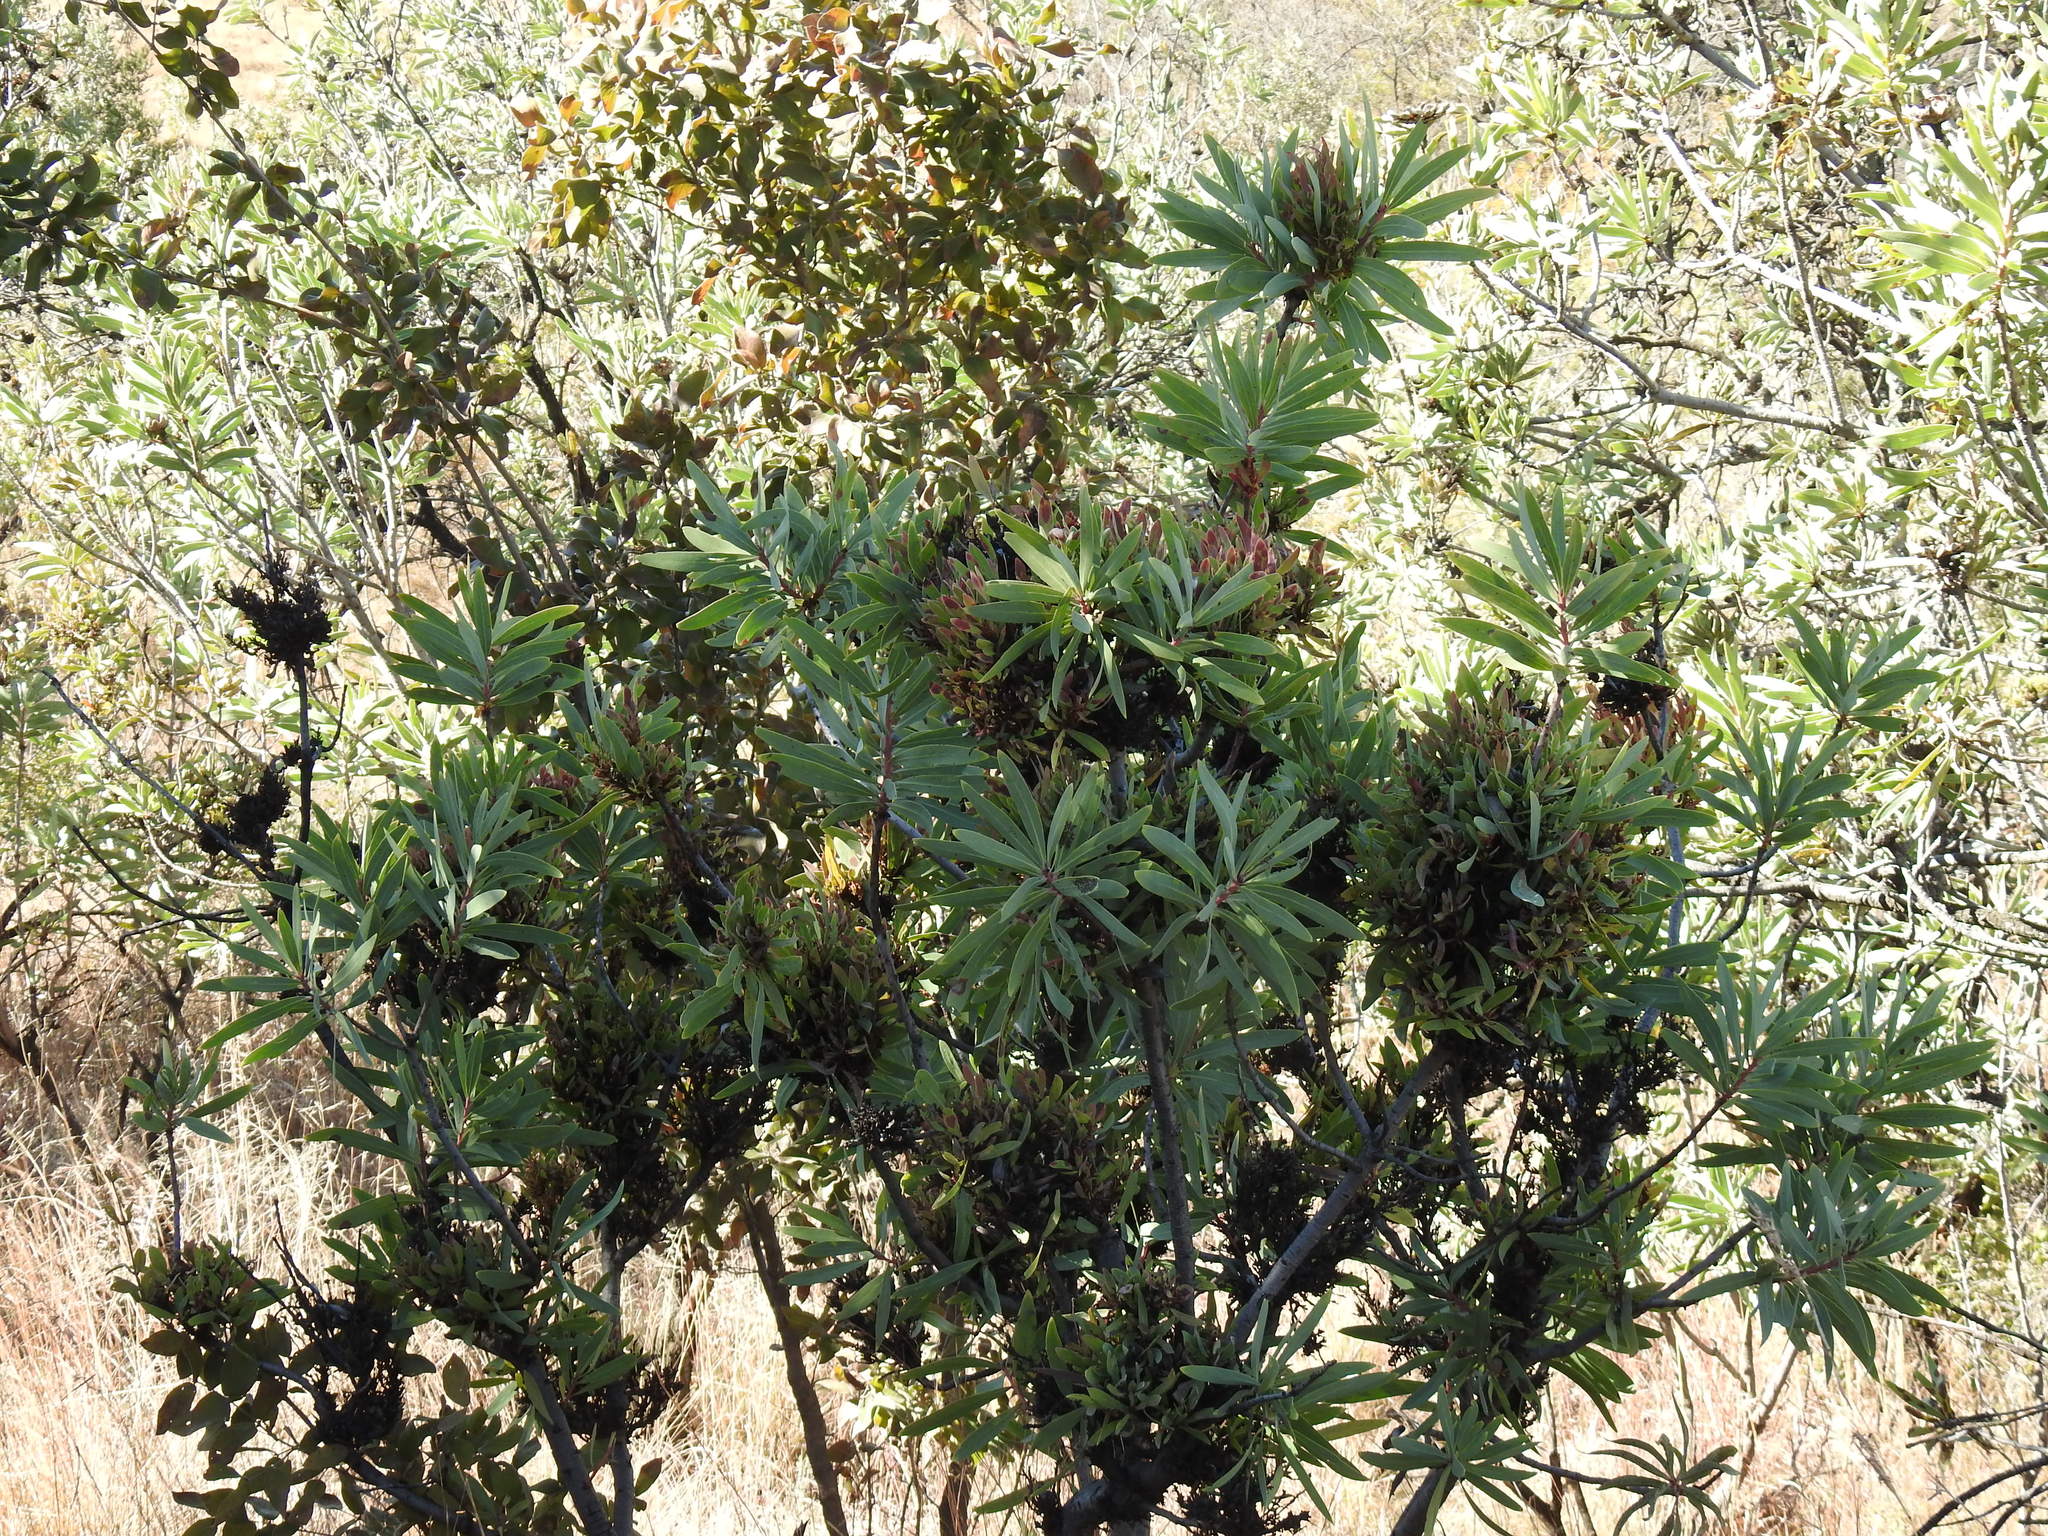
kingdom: Bacteria
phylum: Firmicutes
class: Bacilli
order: Acholeplasmatales
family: Acholeplasmataceae
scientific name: Acholeplasmataceae
